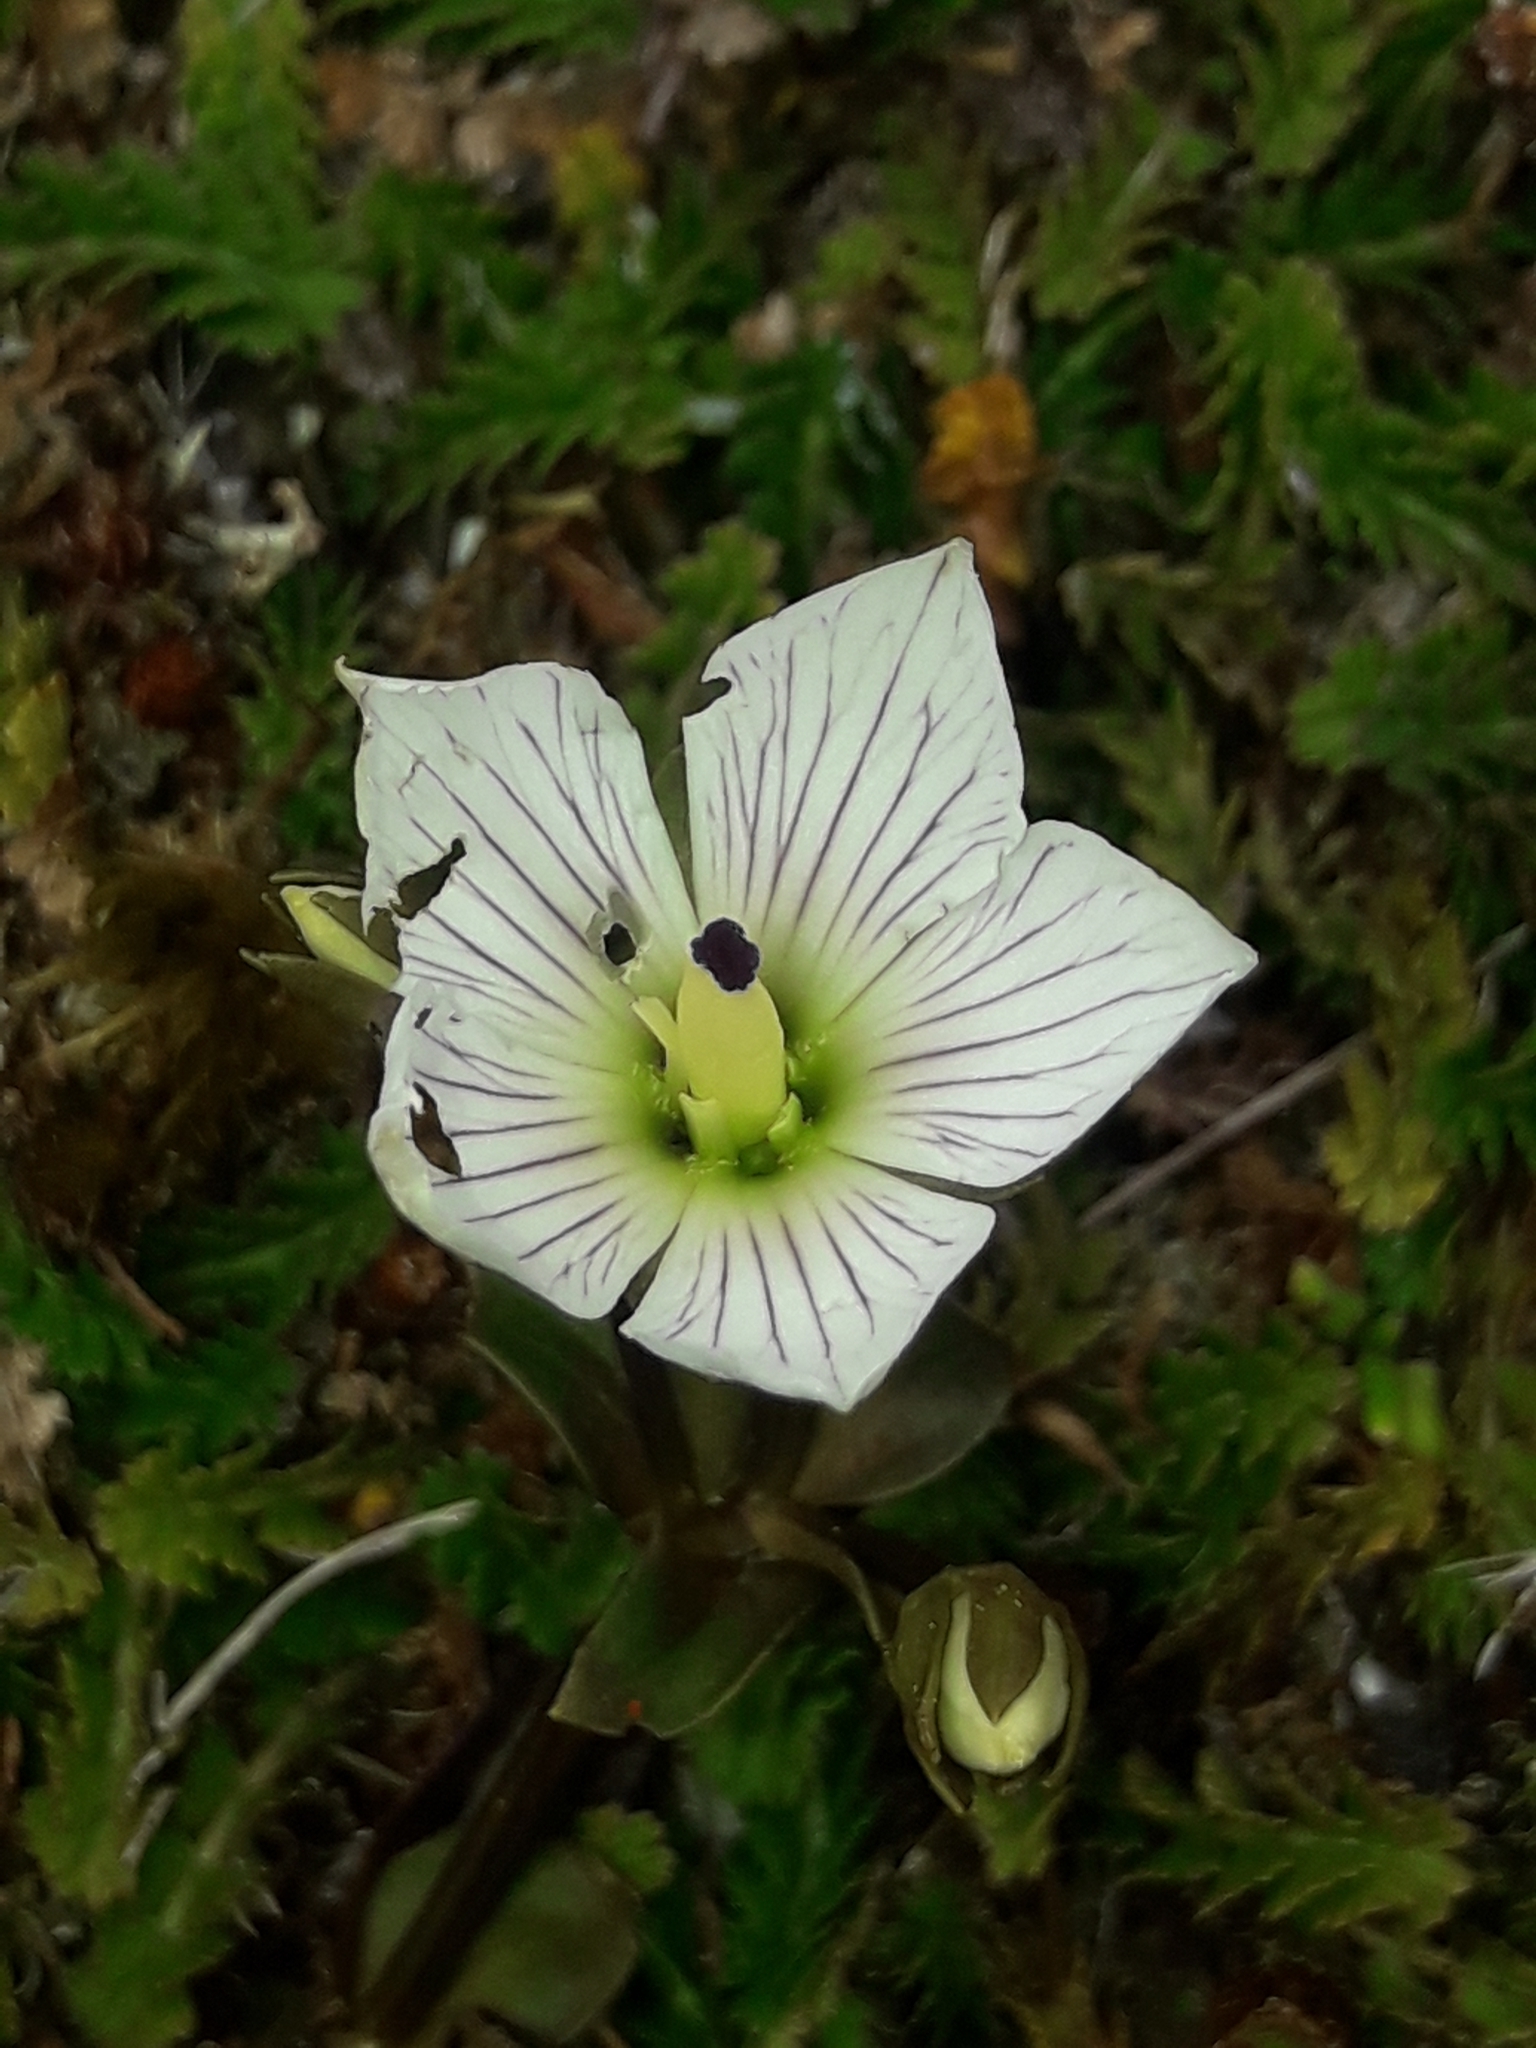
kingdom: Plantae
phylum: Tracheophyta
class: Magnoliopsida
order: Gentianales
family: Gentianaceae
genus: Gentianella
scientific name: Gentianella bellidifolia
